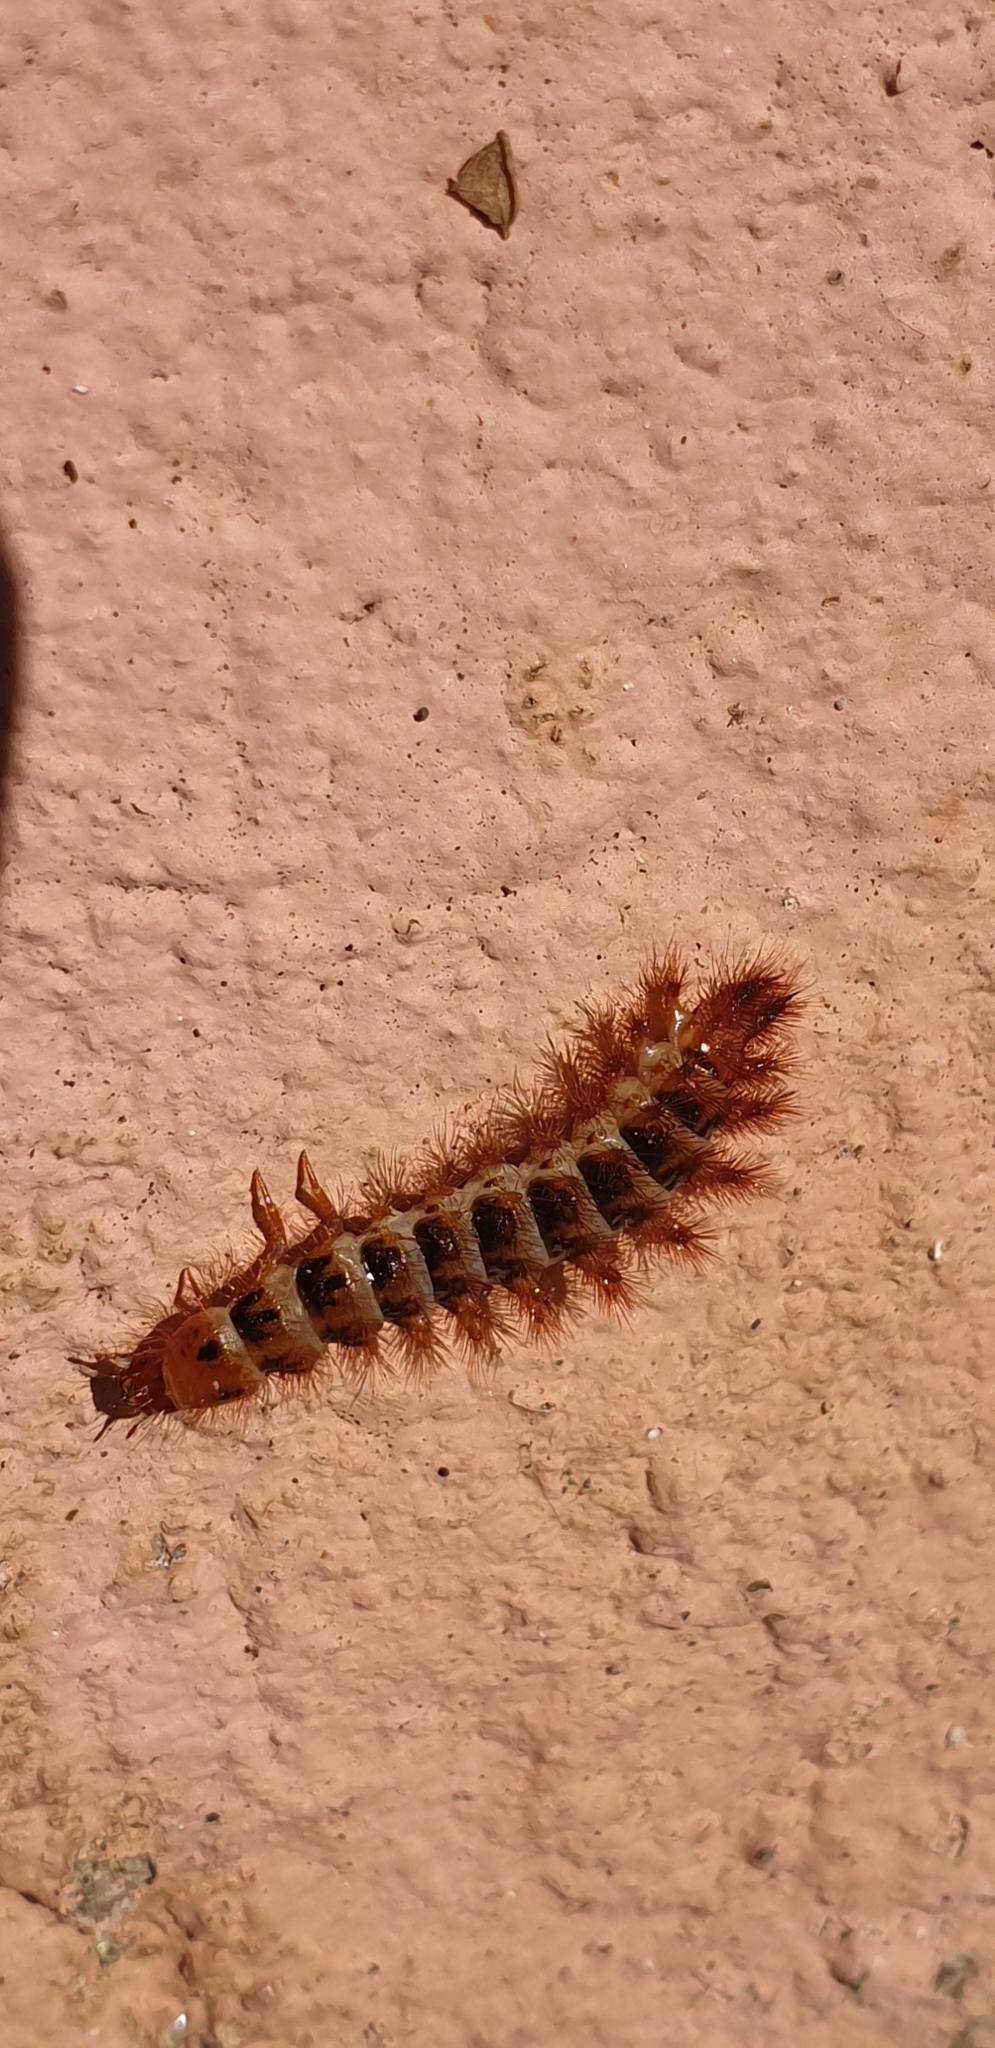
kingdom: Animalia
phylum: Arthropoda
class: Insecta
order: Coleoptera
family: Drilidae
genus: Drilus
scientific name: Drilus flavescens
